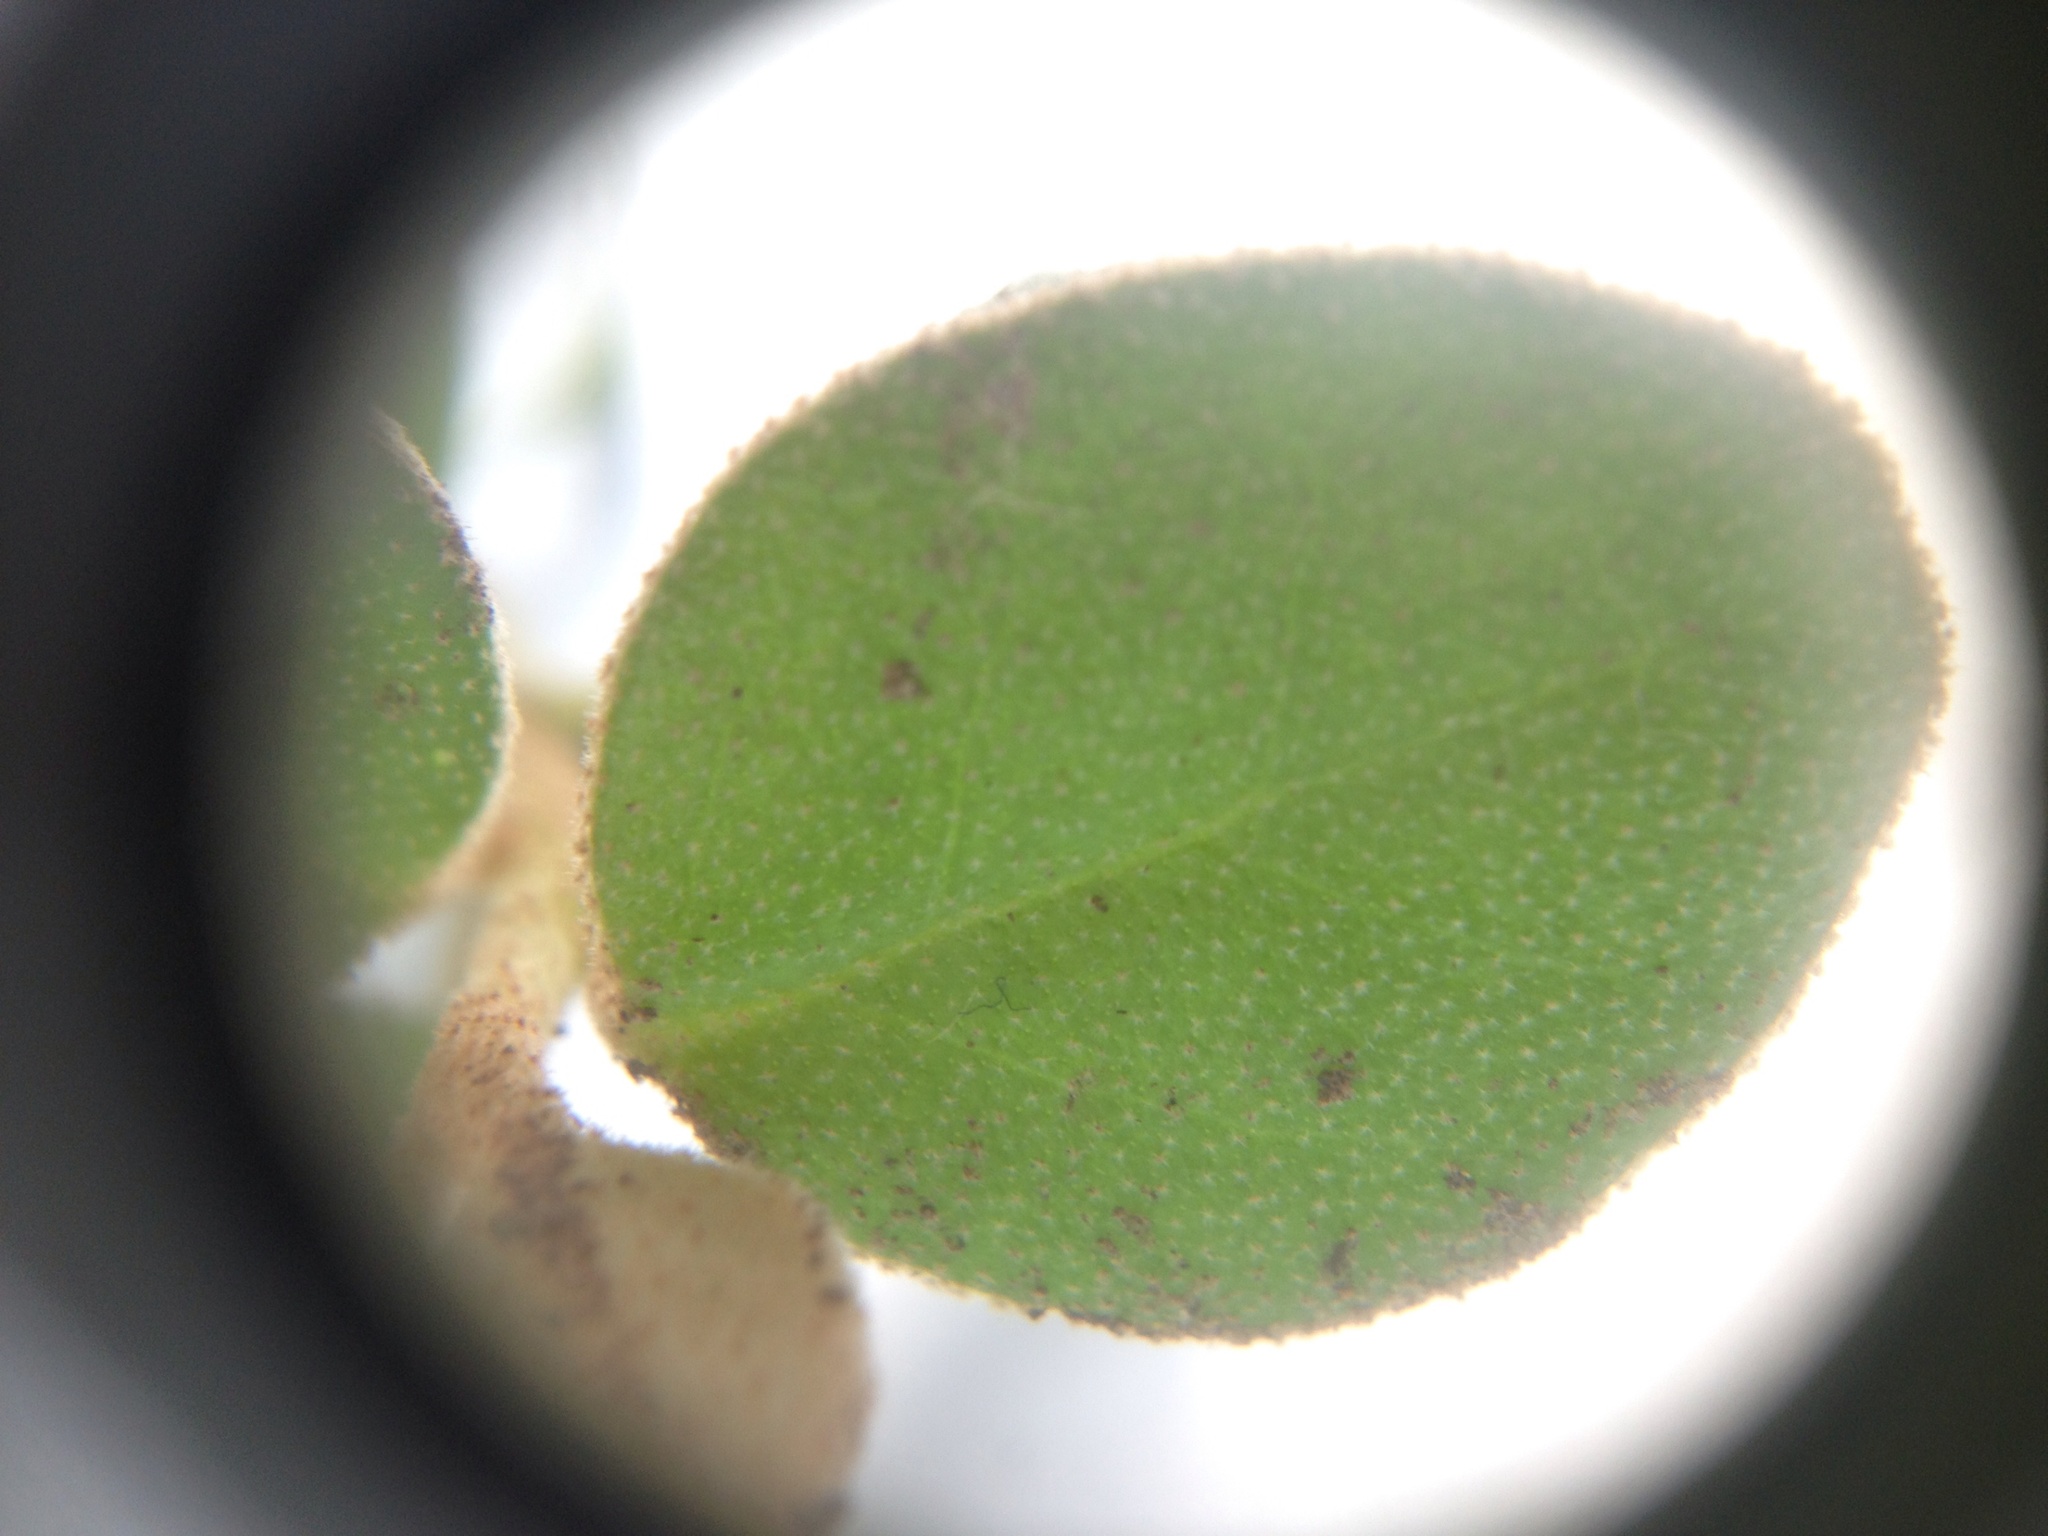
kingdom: Plantae
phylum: Tracheophyta
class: Magnoliopsida
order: Rosales
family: Elaeagnaceae
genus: Elaeagnus
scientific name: Elaeagnus reflexa
